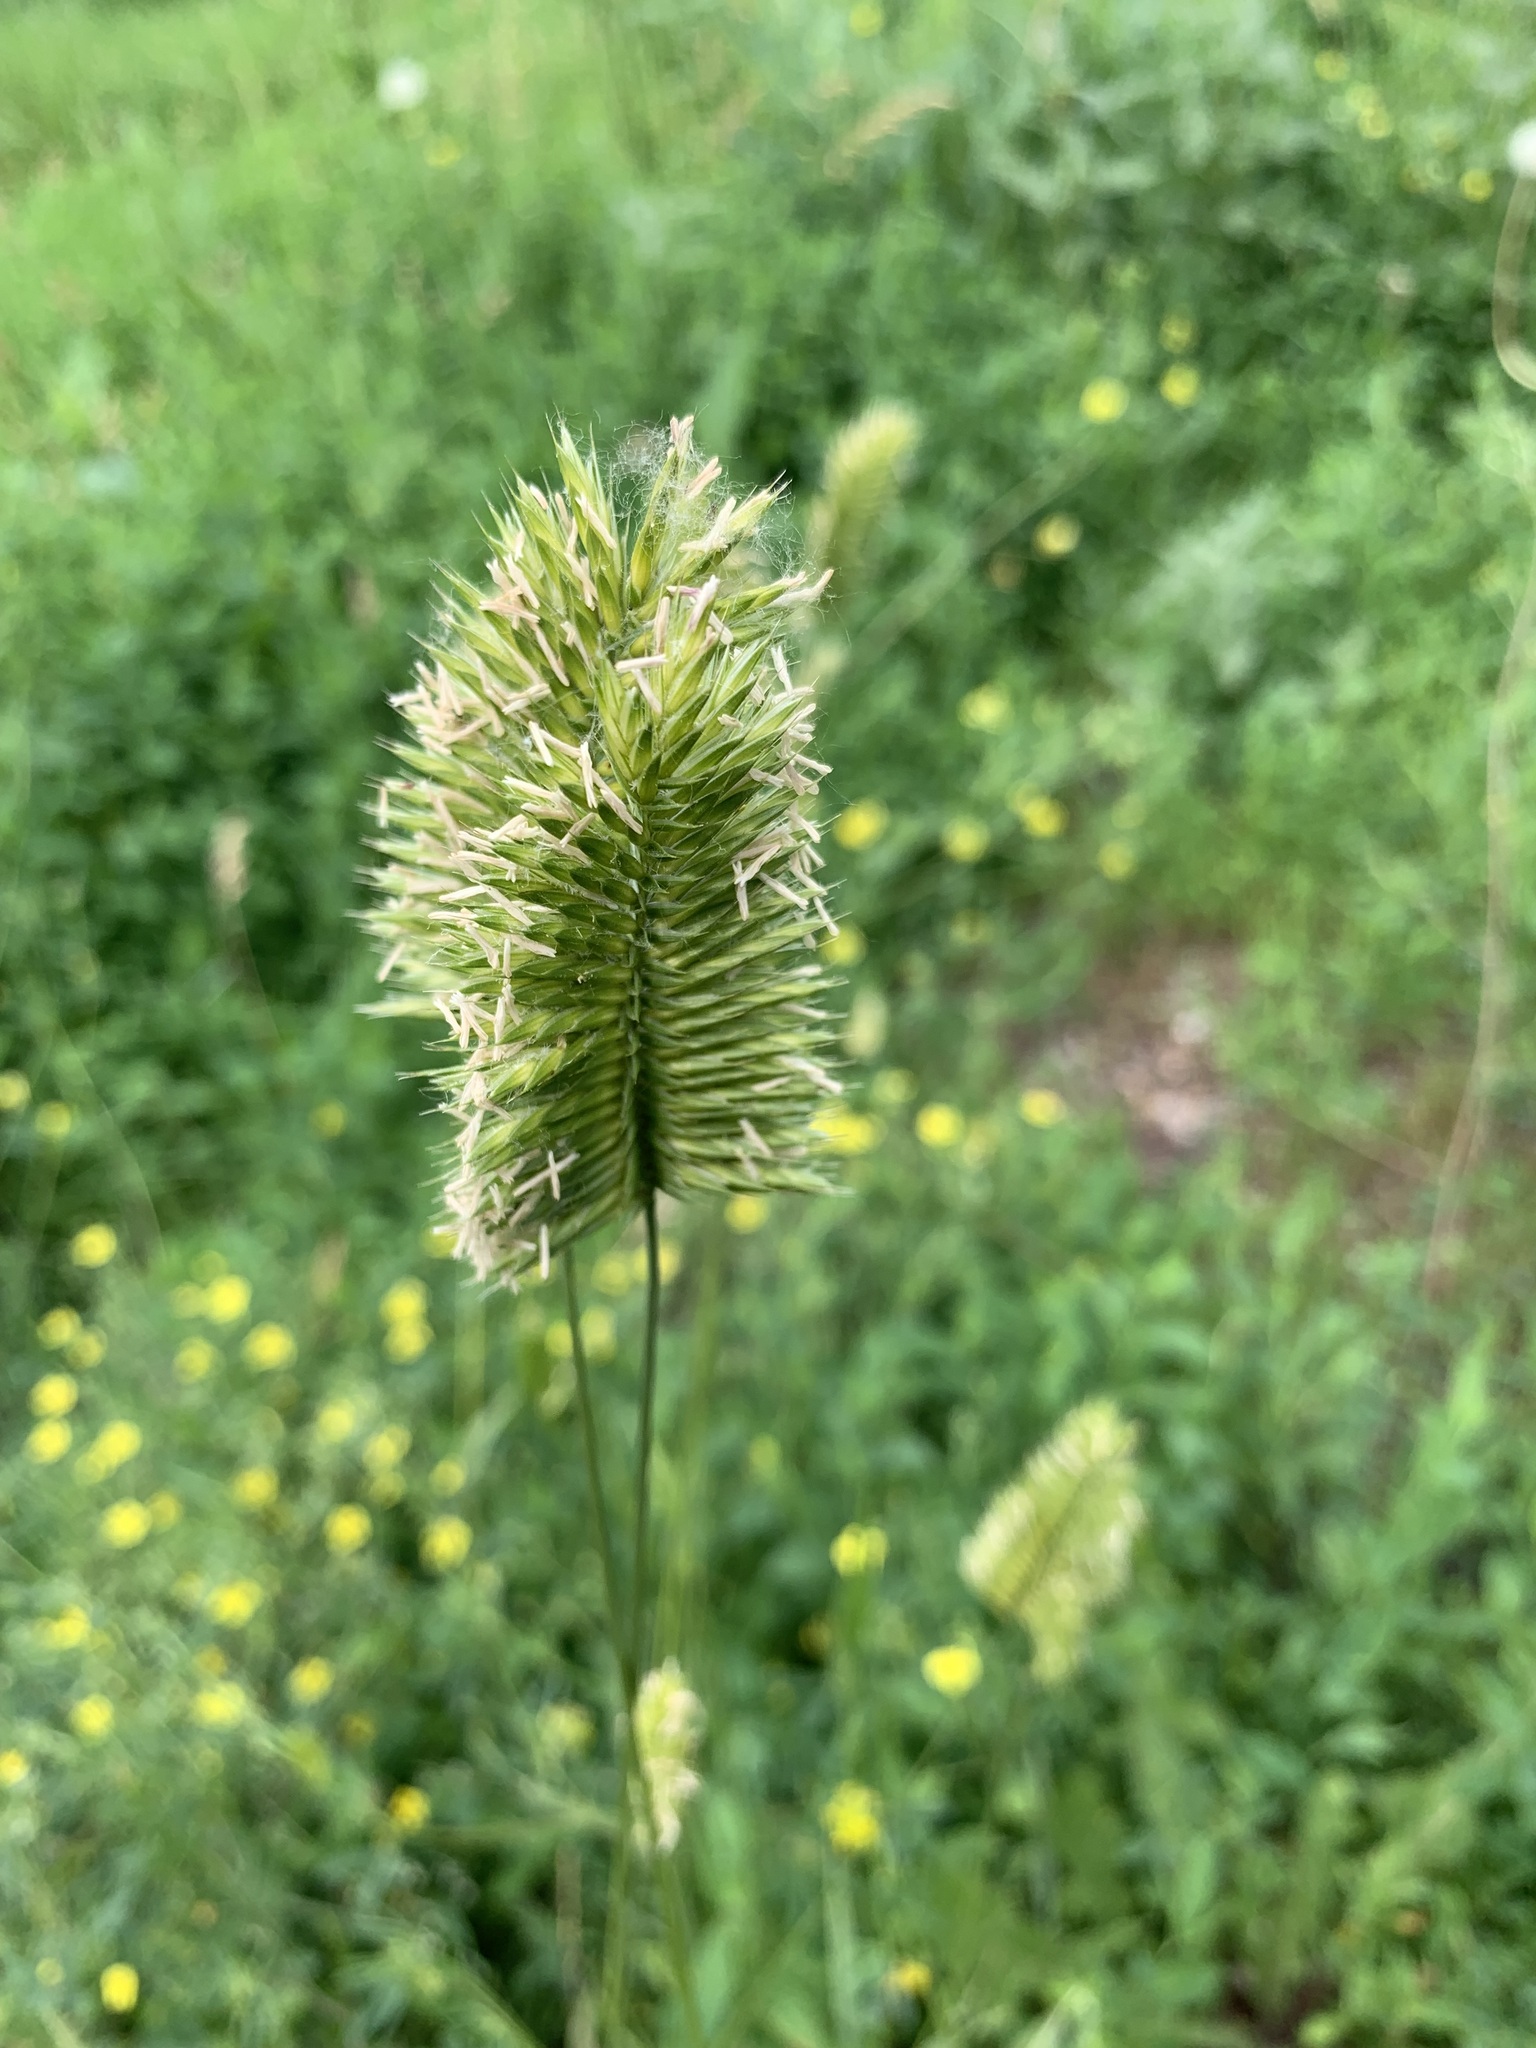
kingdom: Plantae
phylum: Tracheophyta
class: Liliopsida
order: Poales
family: Poaceae
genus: Agropyron
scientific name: Agropyron cristatum
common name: Crested wheatgrass
